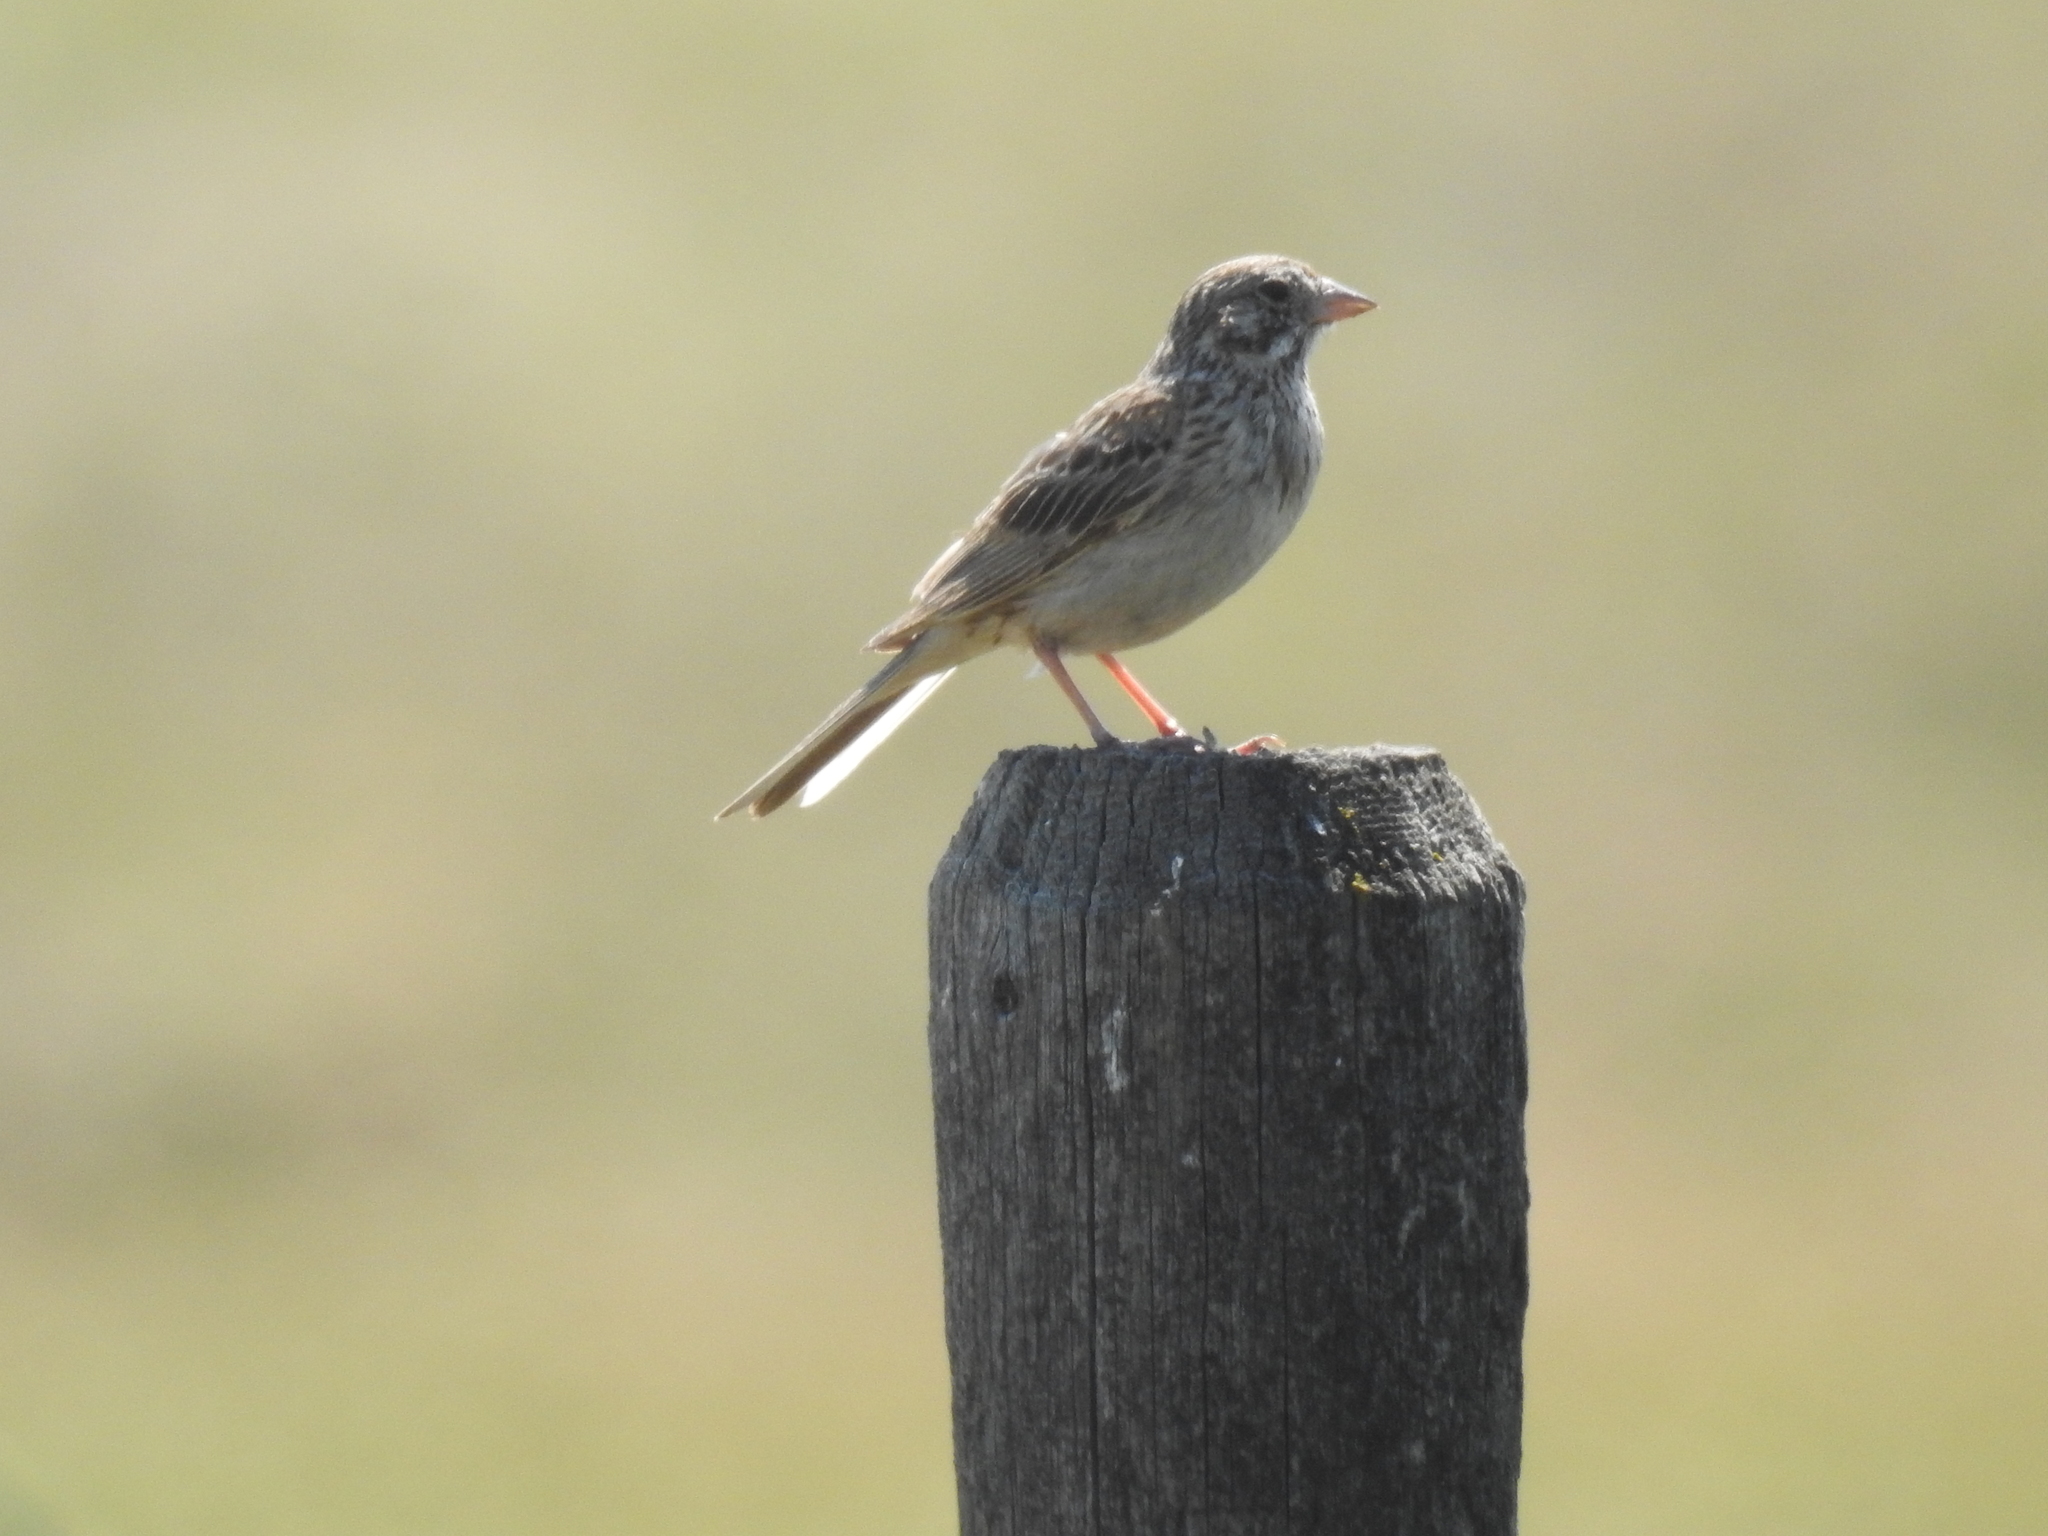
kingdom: Animalia
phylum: Chordata
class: Aves
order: Passeriformes
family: Passerellidae
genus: Pooecetes
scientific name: Pooecetes gramineus
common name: Vesper sparrow
